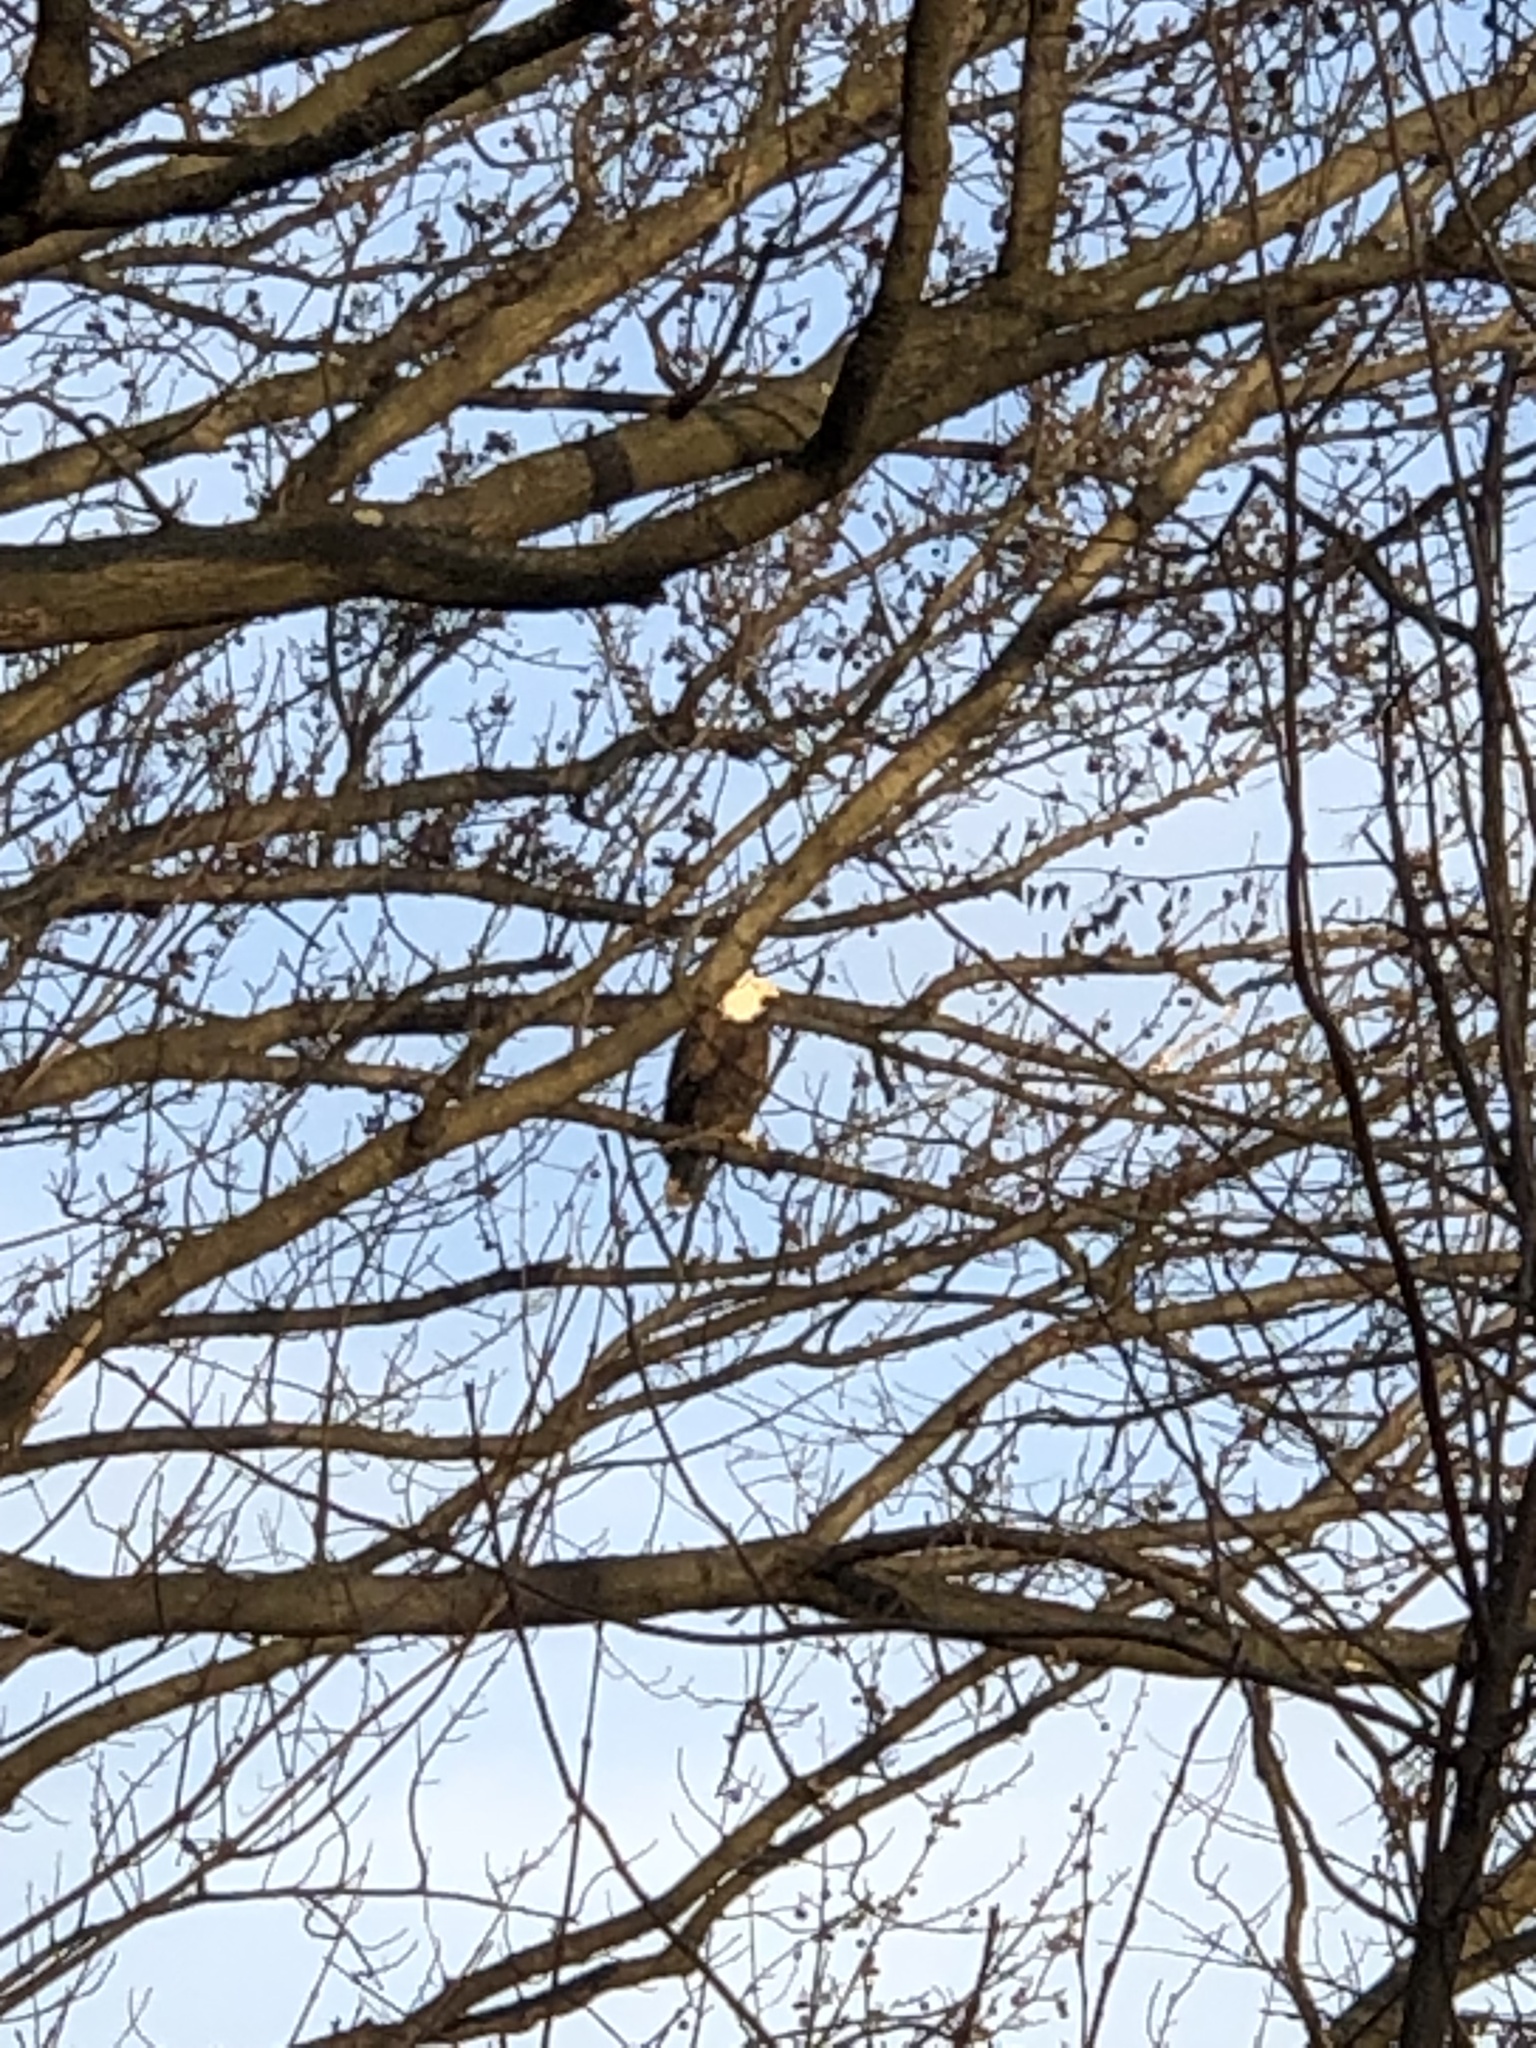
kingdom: Animalia
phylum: Chordata
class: Aves
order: Accipitriformes
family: Accipitridae
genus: Haliaeetus
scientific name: Haliaeetus leucocephalus
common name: Bald eagle
